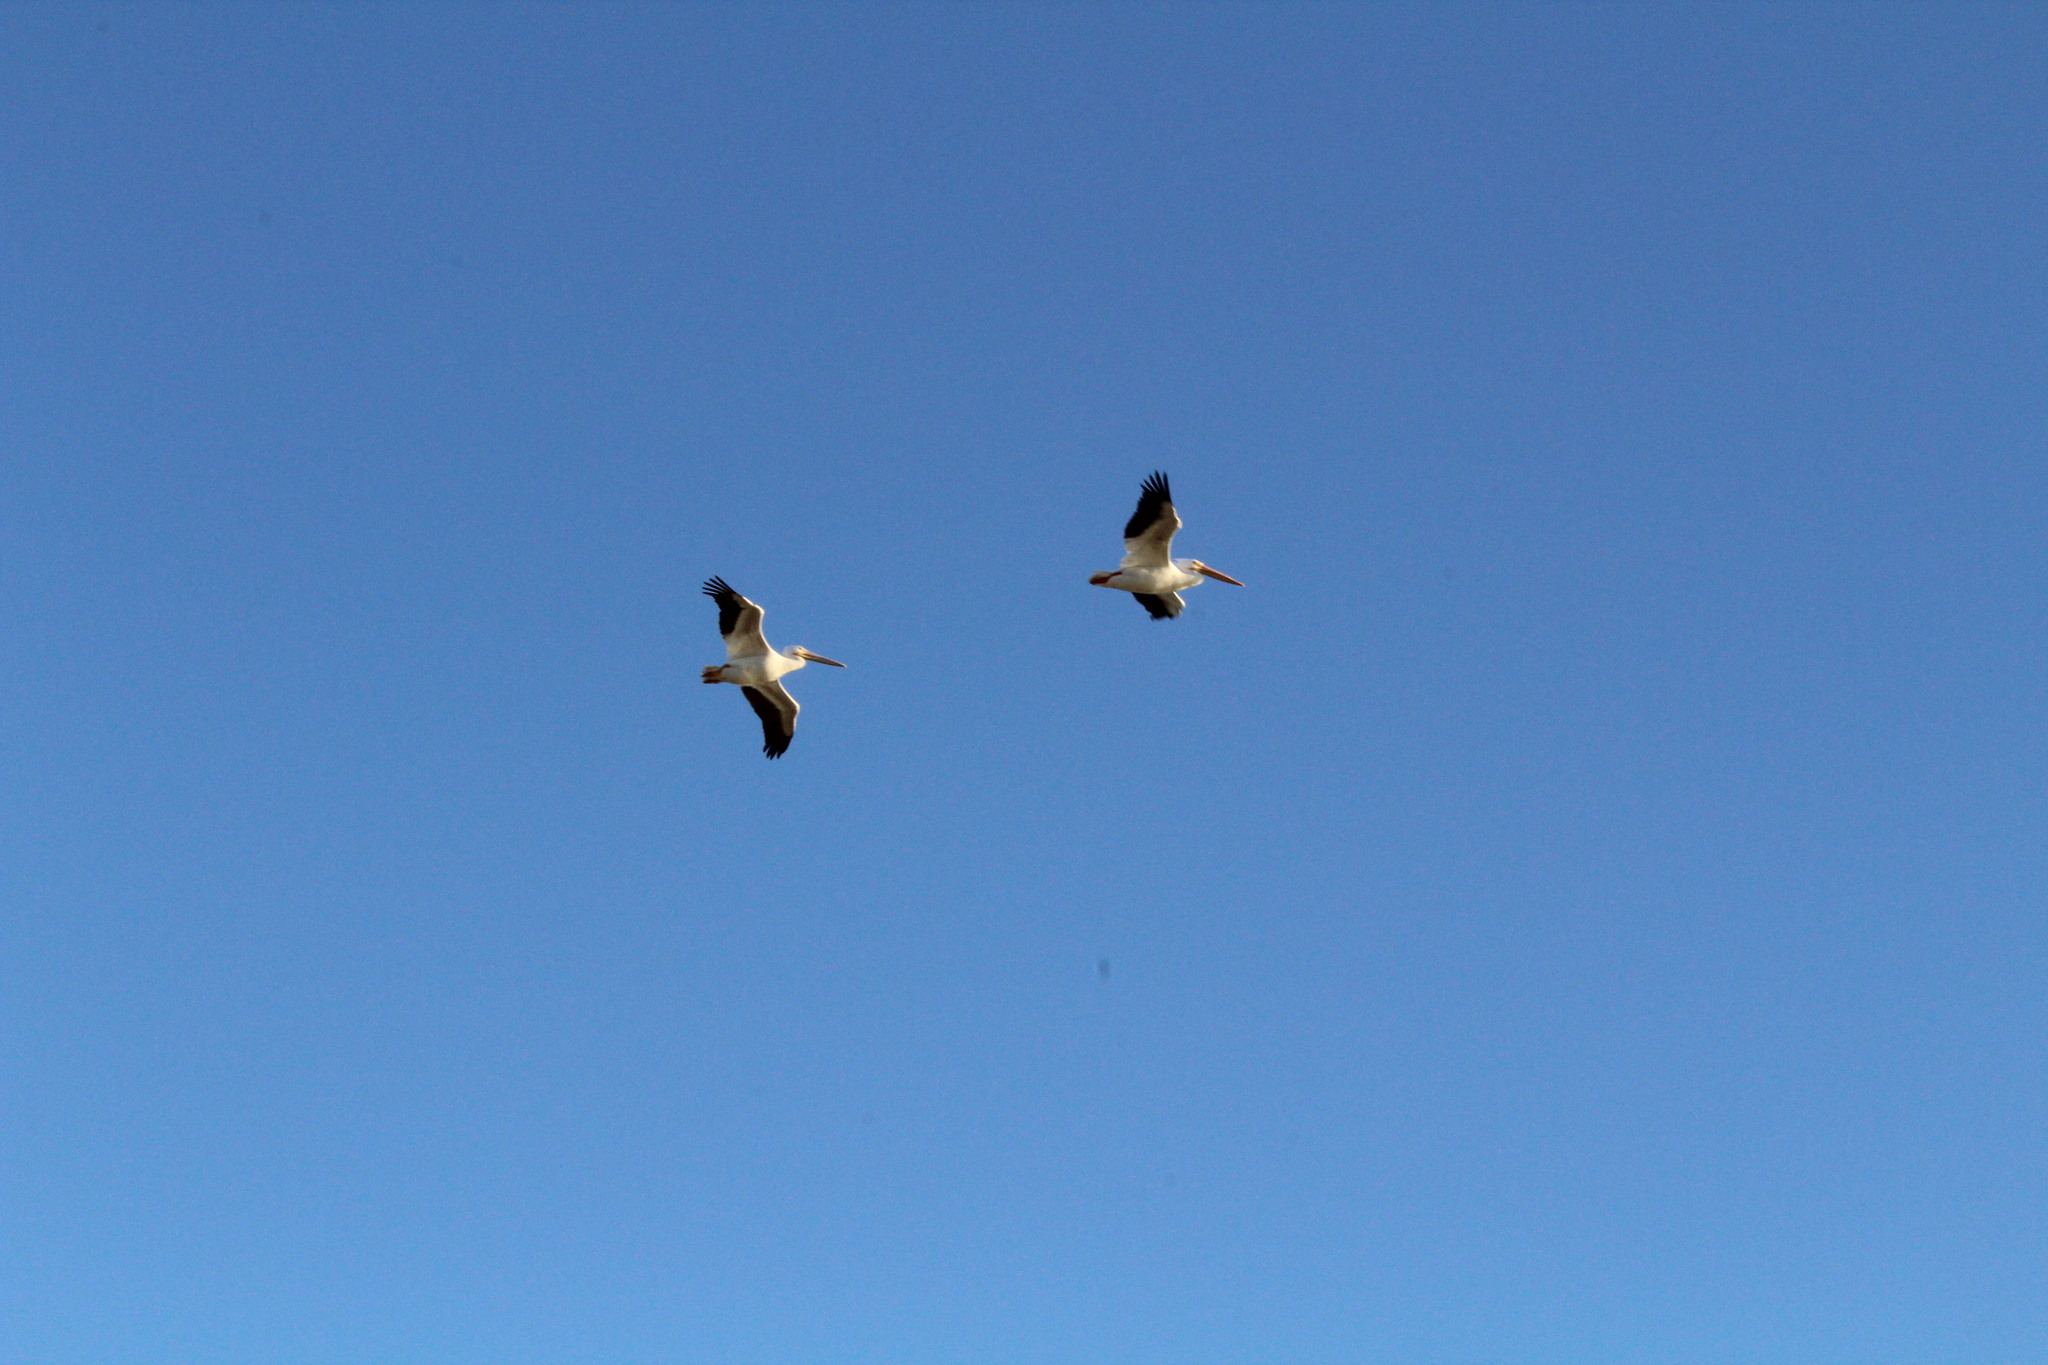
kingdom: Animalia
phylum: Chordata
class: Aves
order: Pelecaniformes
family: Pelecanidae
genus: Pelecanus
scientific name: Pelecanus erythrorhynchos
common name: American white pelican
